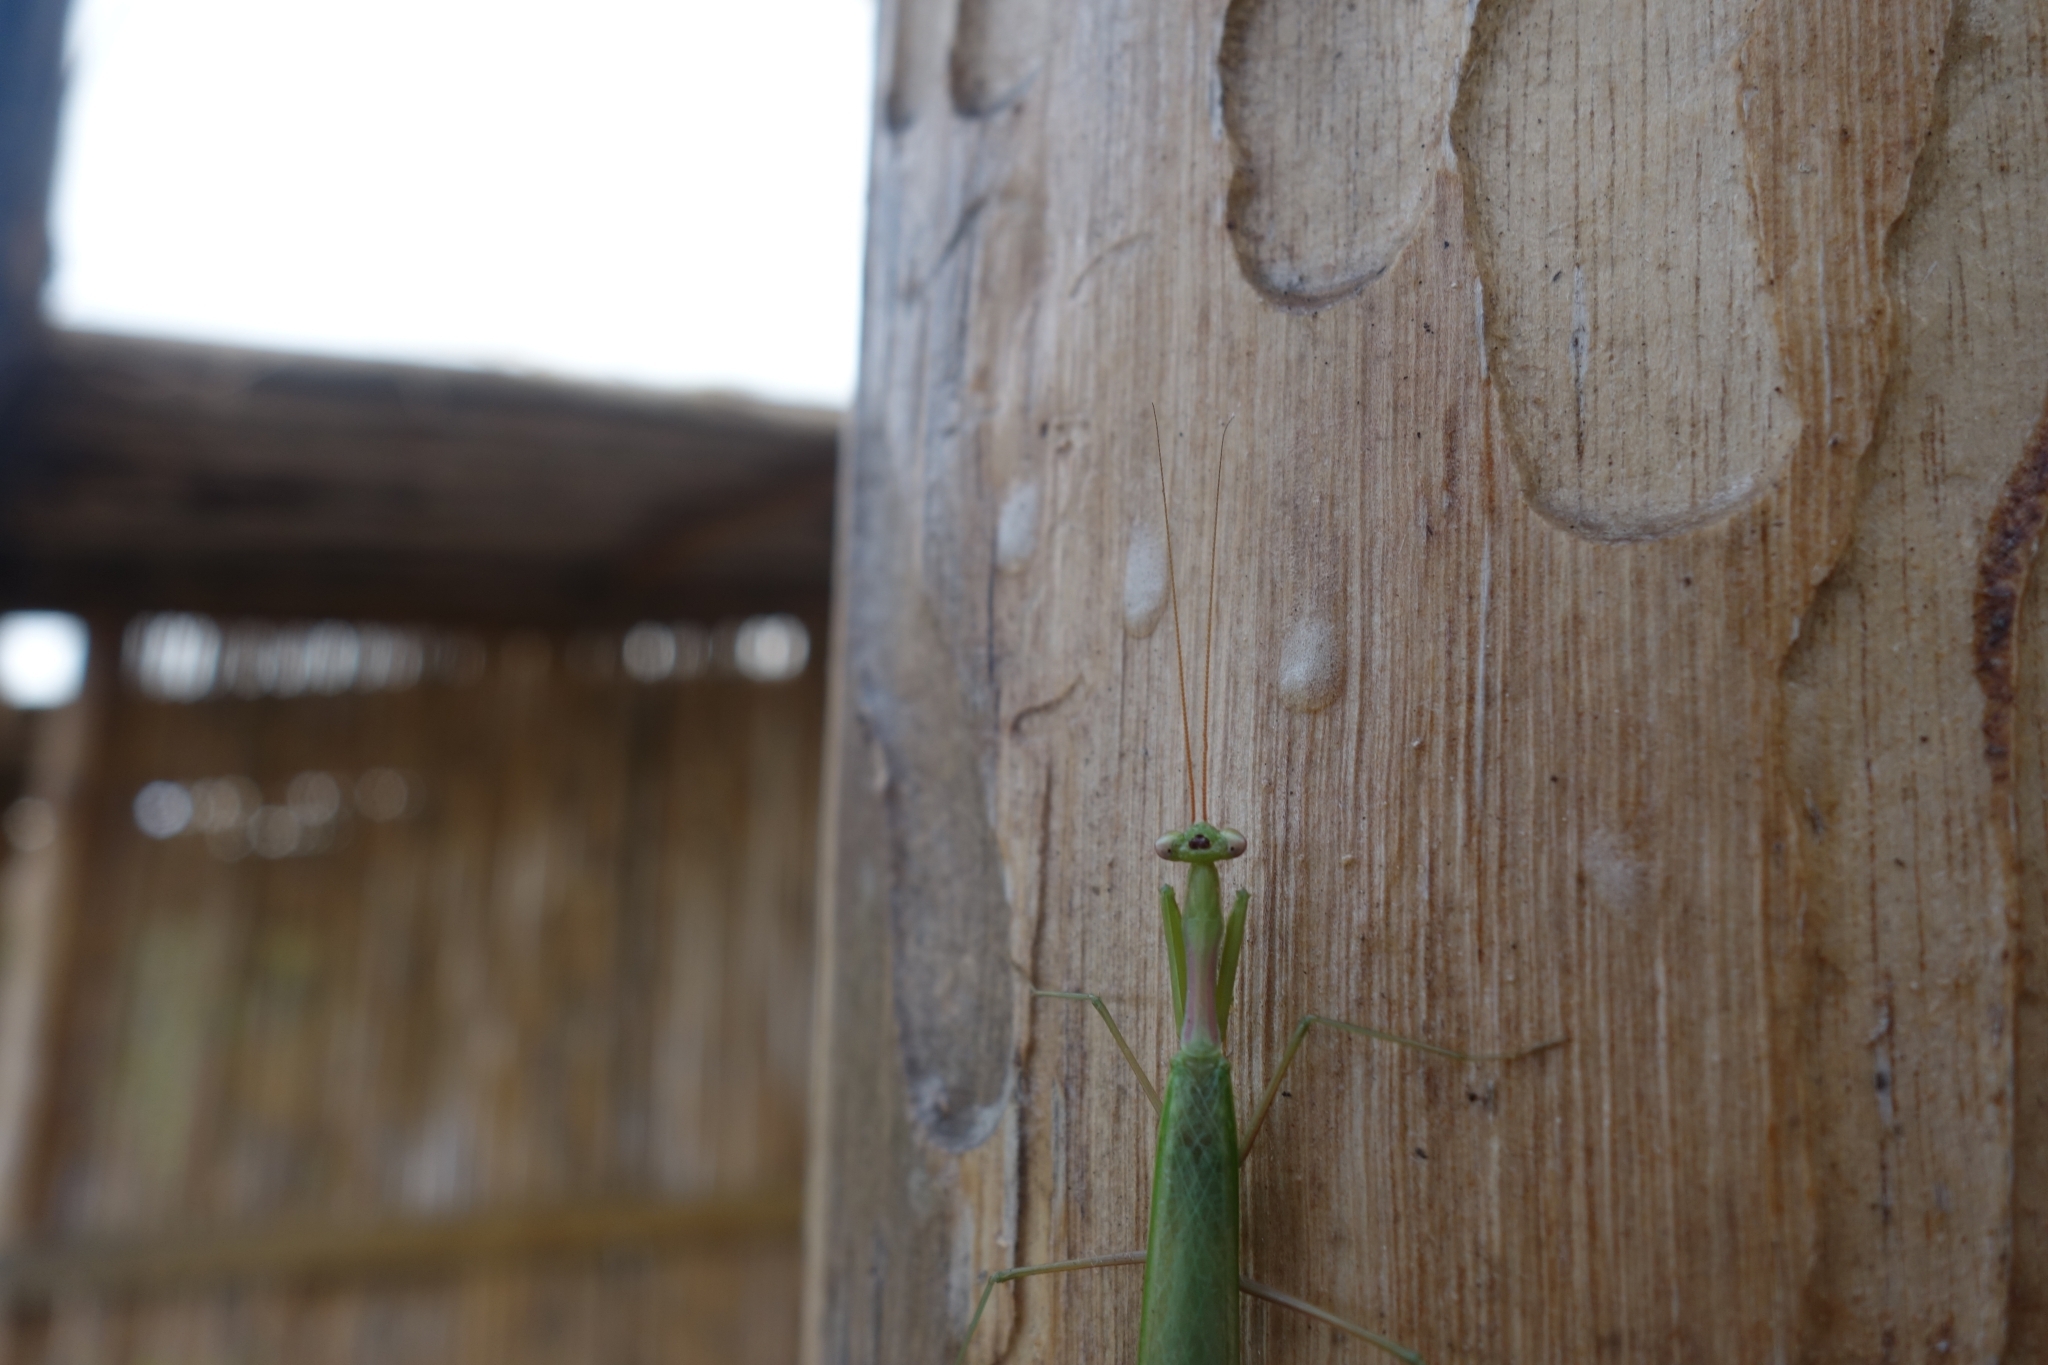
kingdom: Animalia
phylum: Arthropoda
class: Insecta
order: Mantodea
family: Miomantidae
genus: Miomantis
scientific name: Miomantis caffra
